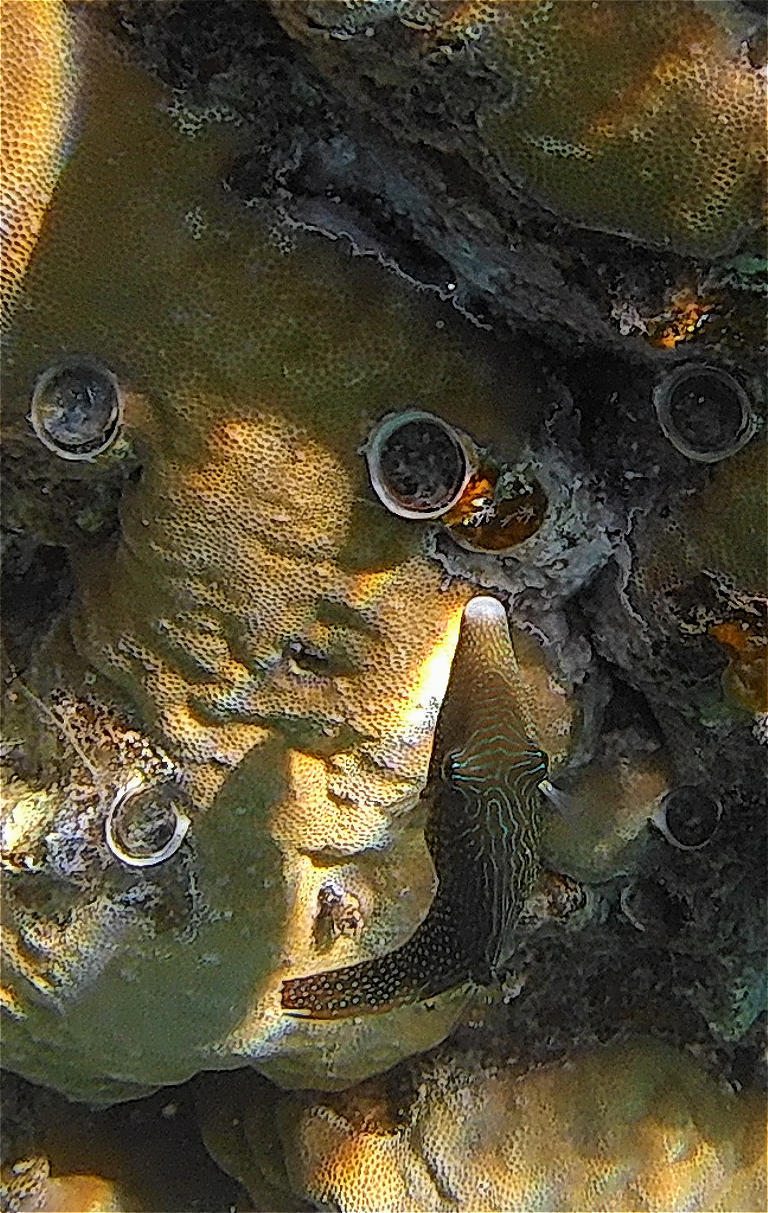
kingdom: Animalia
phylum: Chordata
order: Tetraodontiformes
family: Tetraodontidae
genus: Canthigaster
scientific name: Canthigaster margaritata
